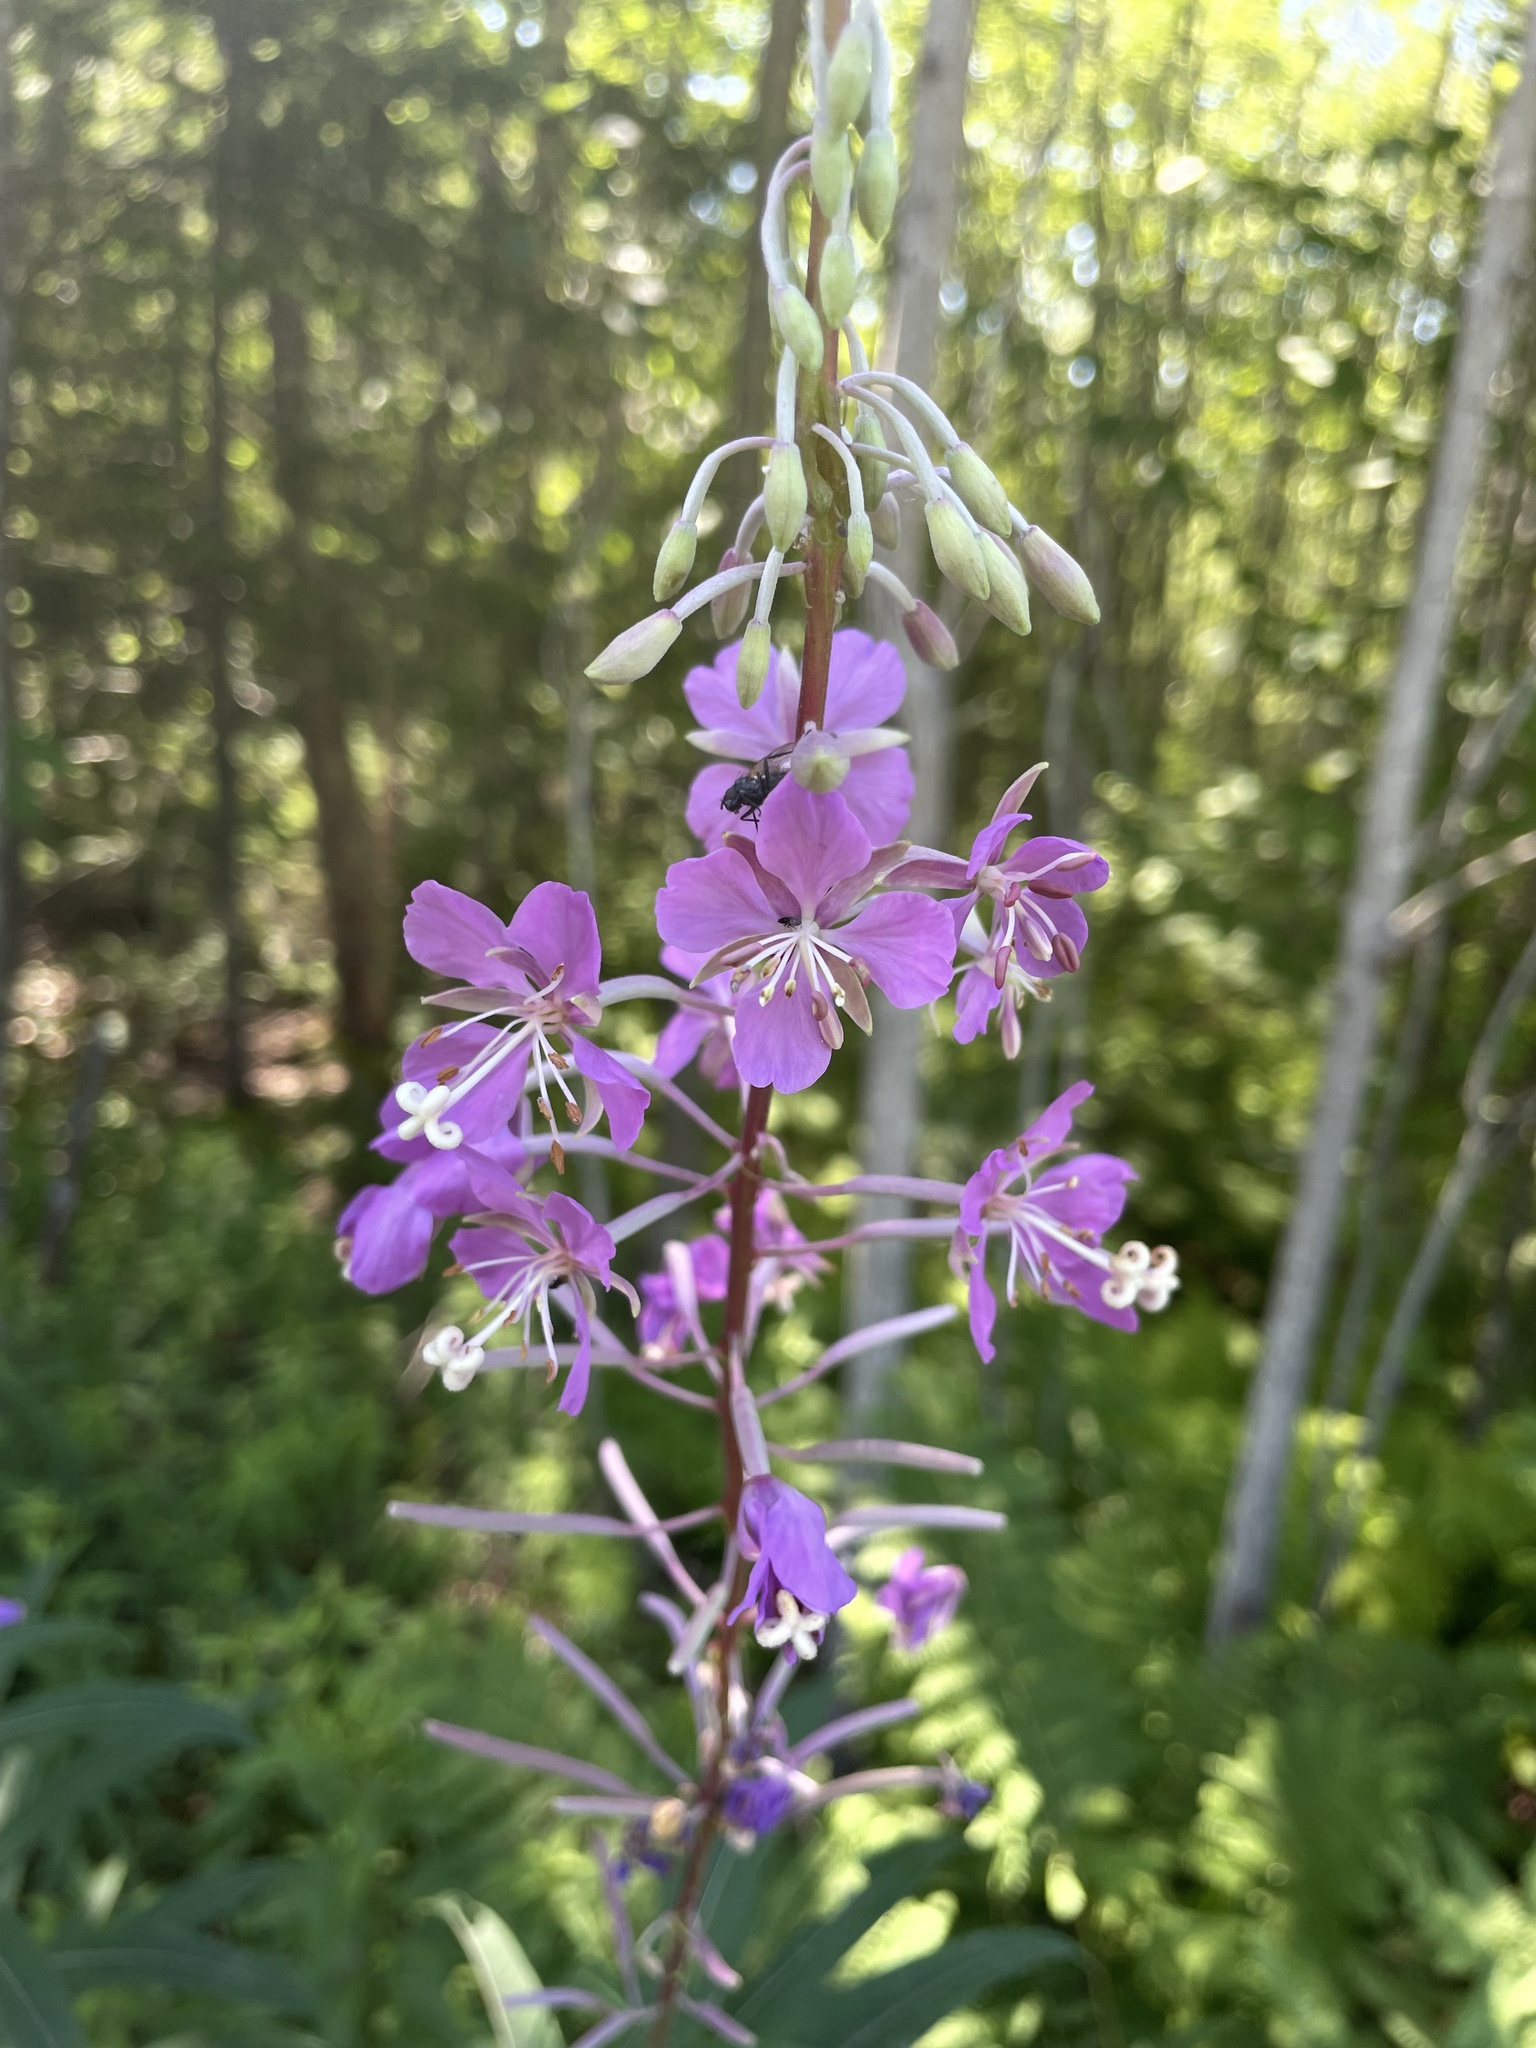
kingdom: Plantae
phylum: Tracheophyta
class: Magnoliopsida
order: Myrtales
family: Onagraceae
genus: Chamaenerion
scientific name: Chamaenerion angustifolium
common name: Fireweed
